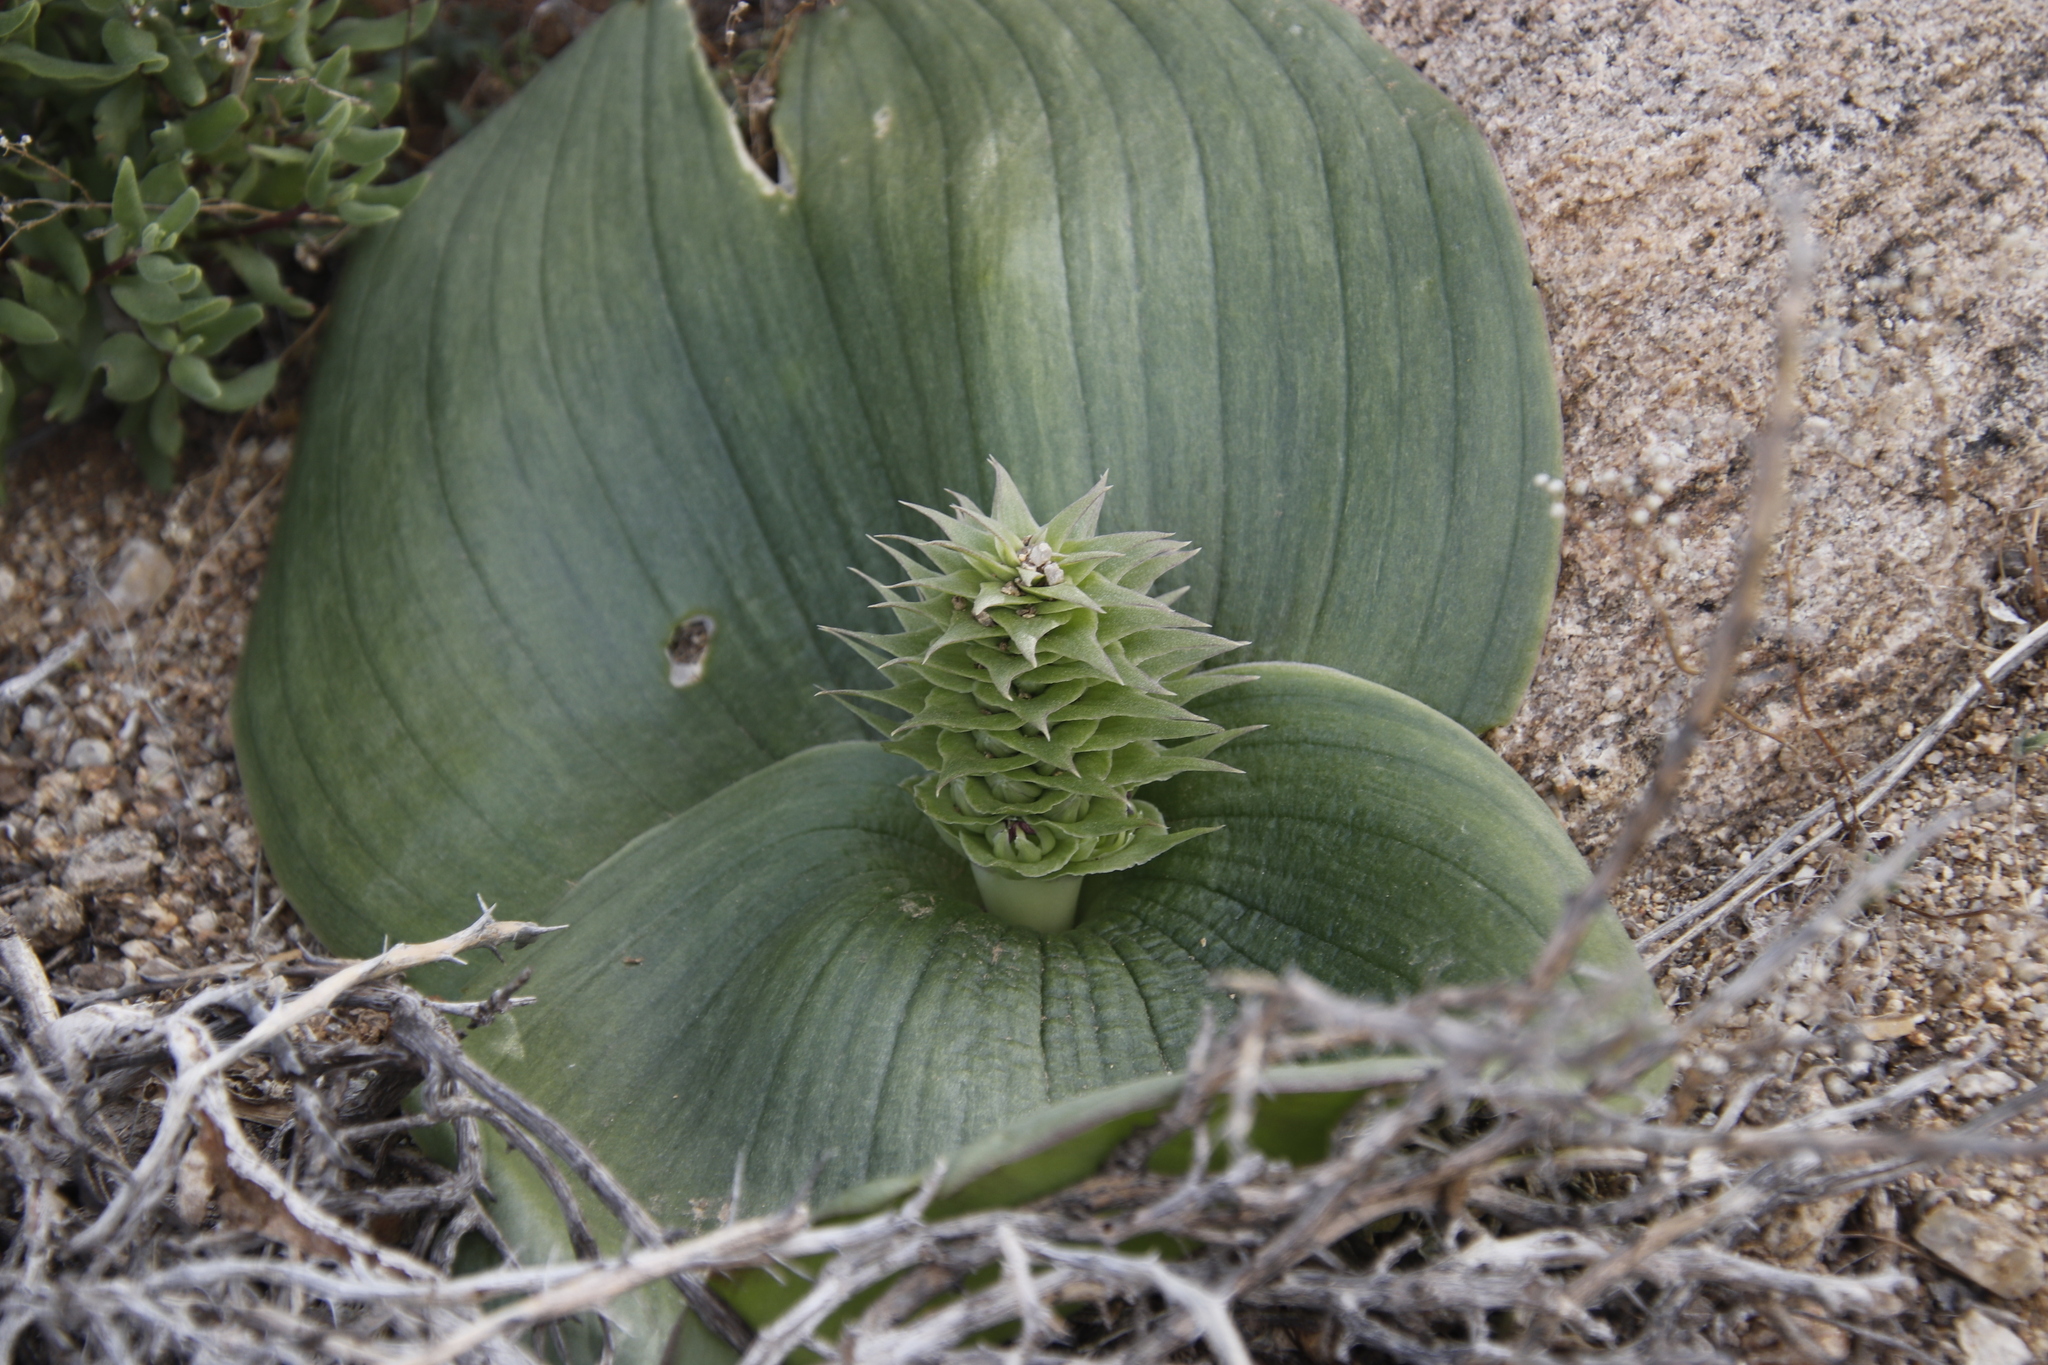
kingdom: Plantae
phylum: Tracheophyta
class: Liliopsida
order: Asparagales
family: Asparagaceae
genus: Massonia
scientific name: Massonia bifolia
